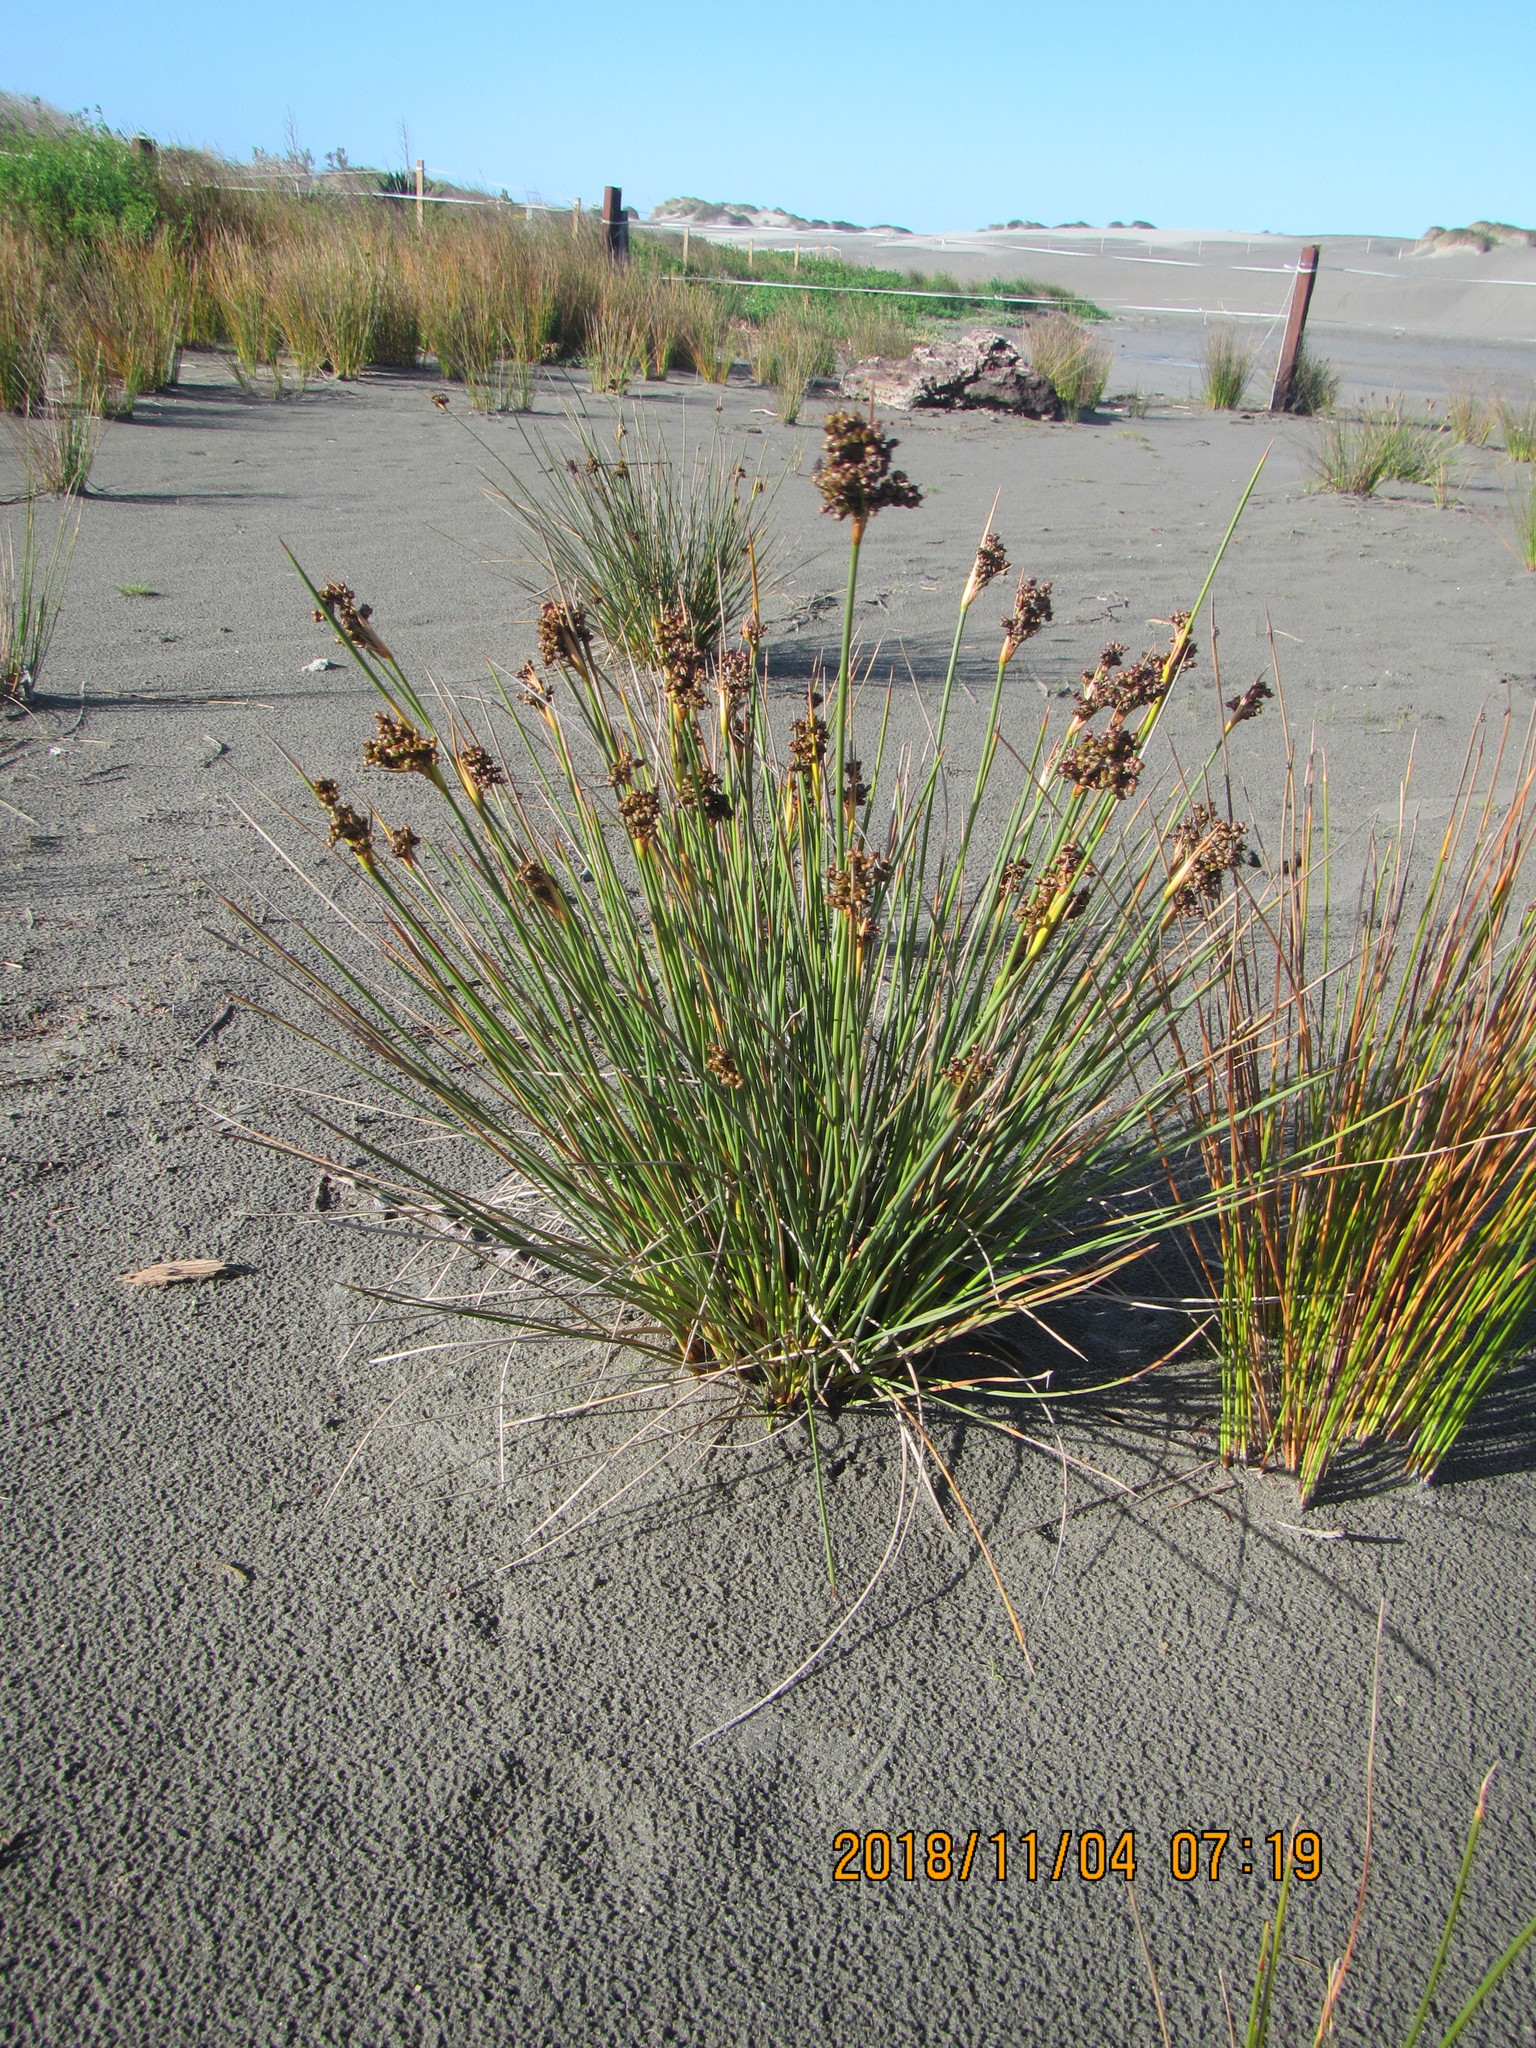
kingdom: Plantae
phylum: Tracheophyta
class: Liliopsida
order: Poales
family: Juncaceae
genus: Juncus
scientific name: Juncus acutus
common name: Sharp rush
